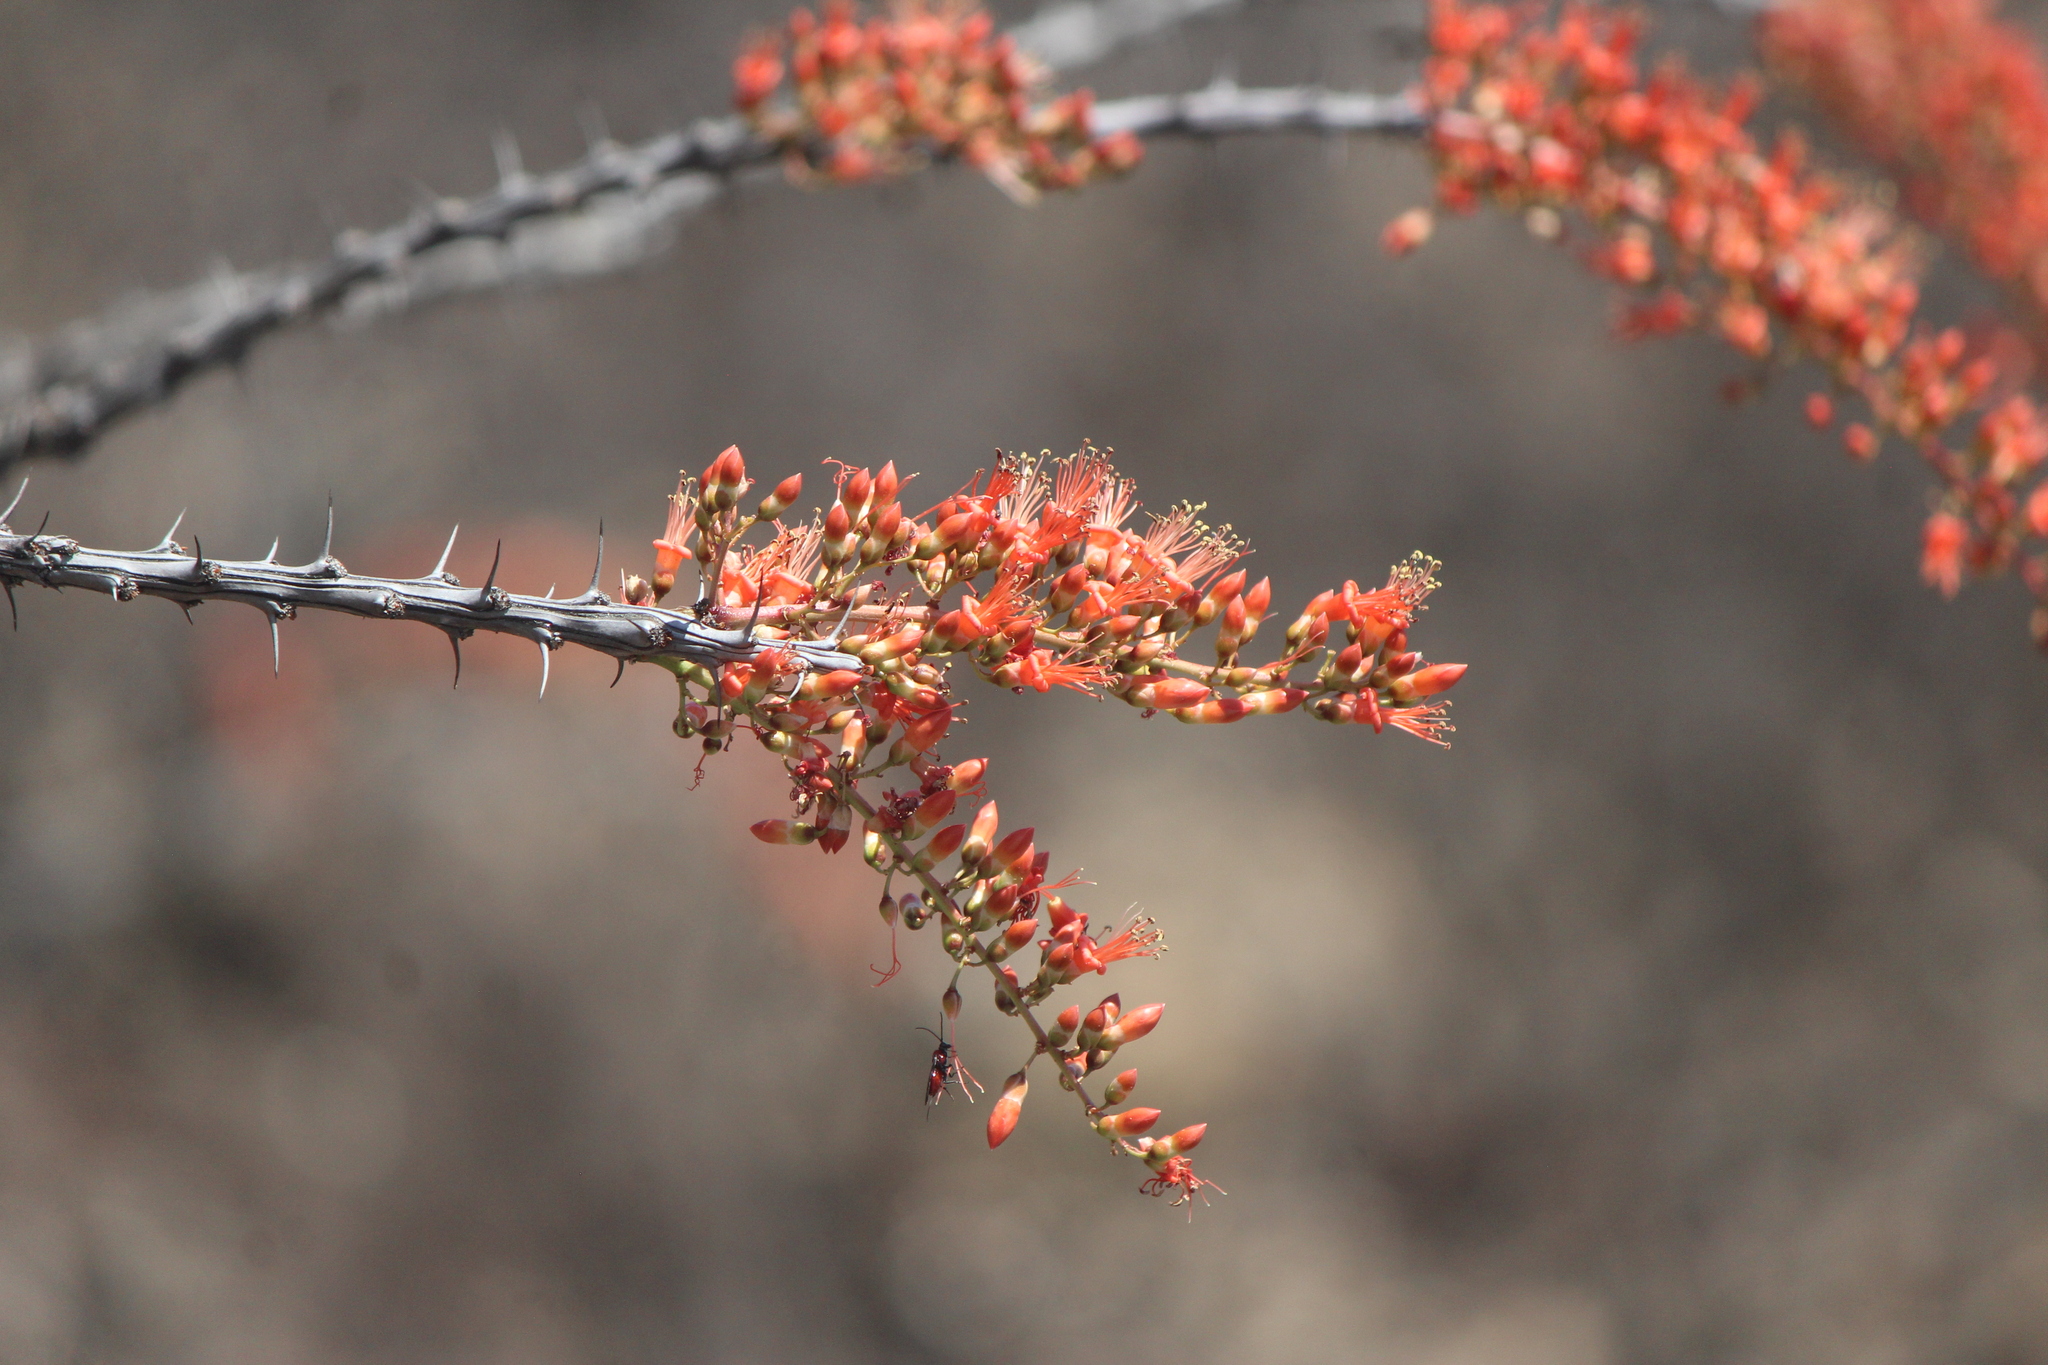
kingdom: Plantae
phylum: Tracheophyta
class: Magnoliopsida
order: Ericales
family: Fouquieriaceae
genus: Fouquieria
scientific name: Fouquieria splendens
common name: Vine-cactus
